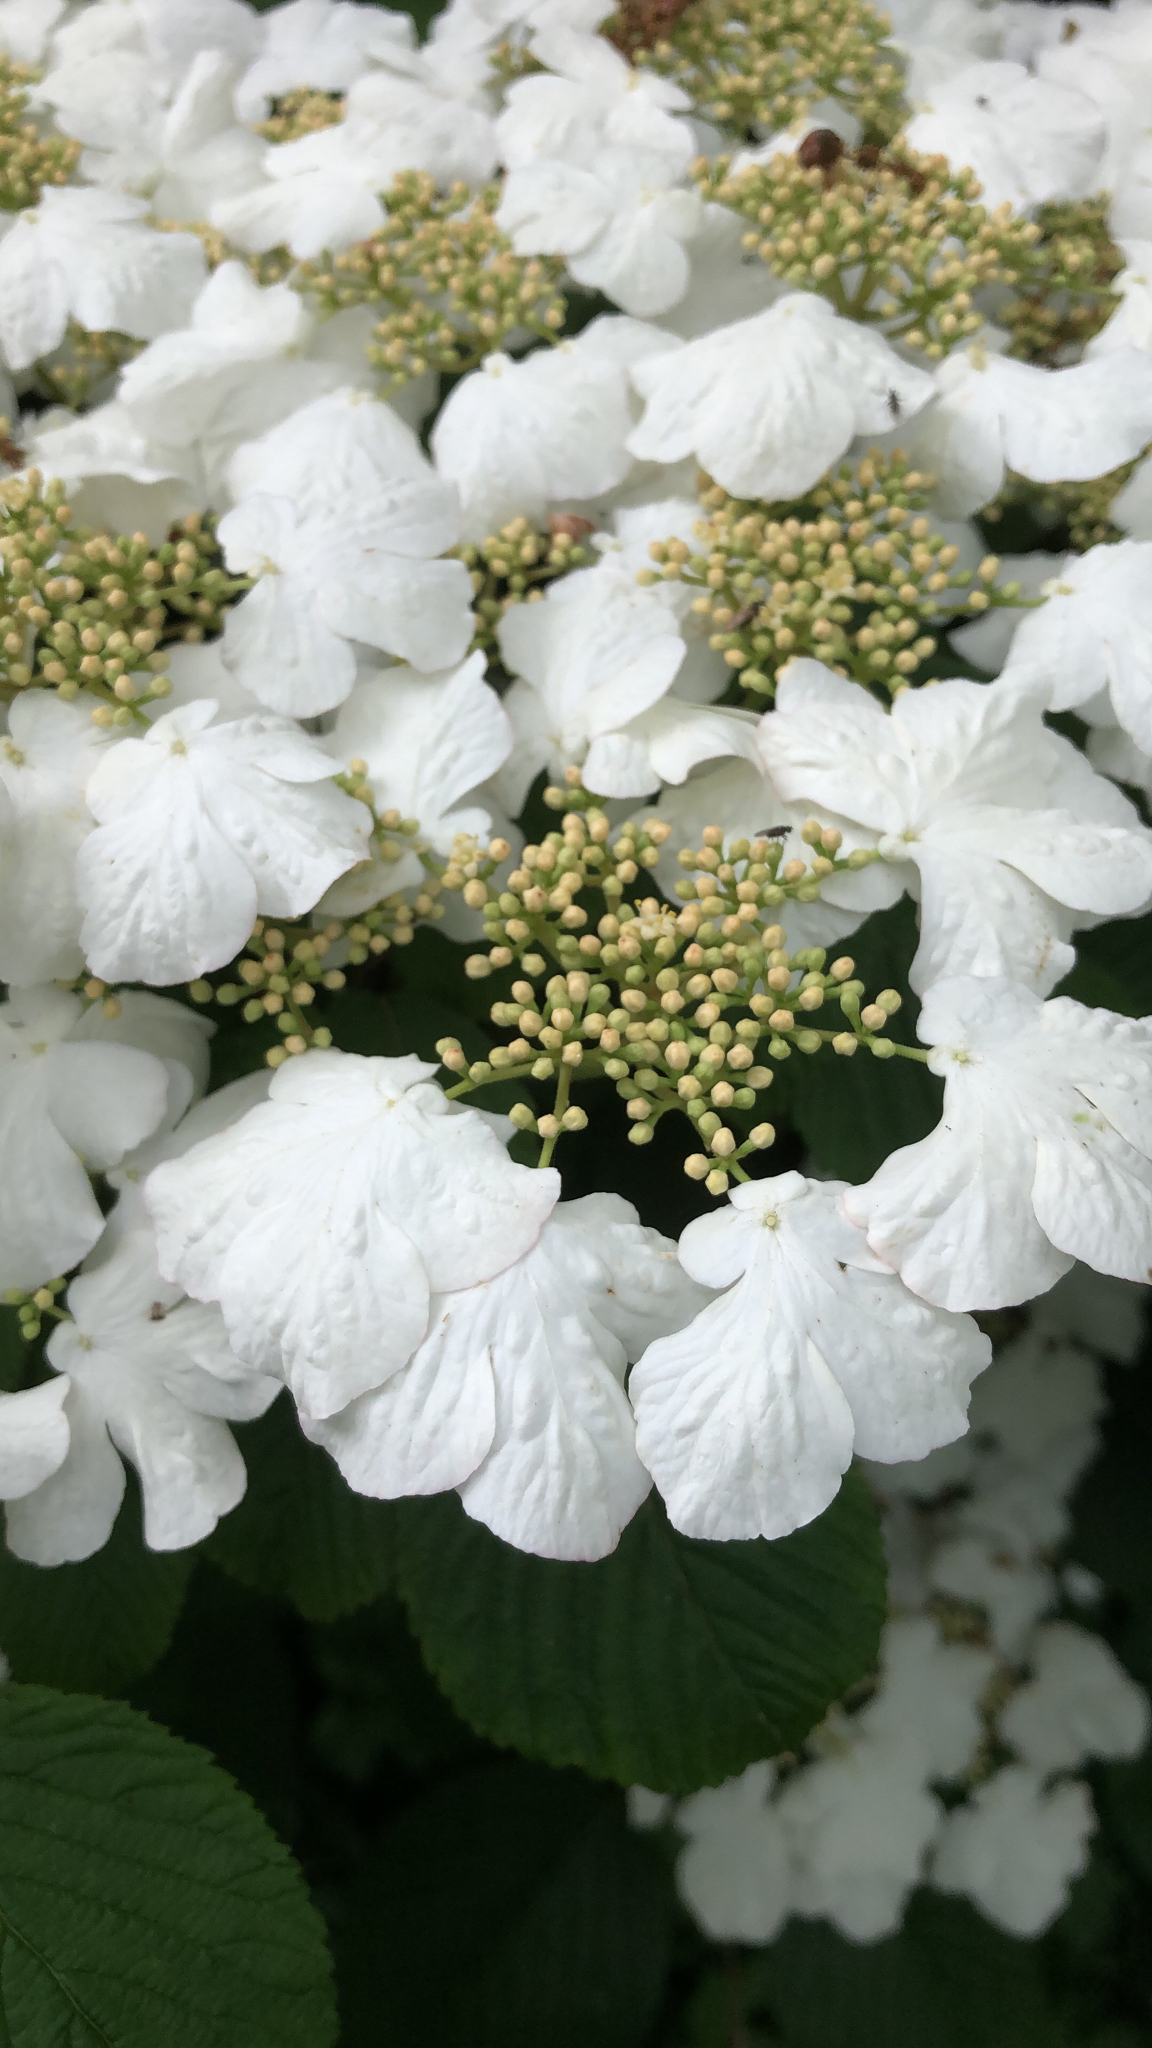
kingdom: Plantae
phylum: Tracheophyta
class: Magnoliopsida
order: Dipsacales
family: Viburnaceae
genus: Viburnum
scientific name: Viburnum plicatum
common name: Japanese snowball
